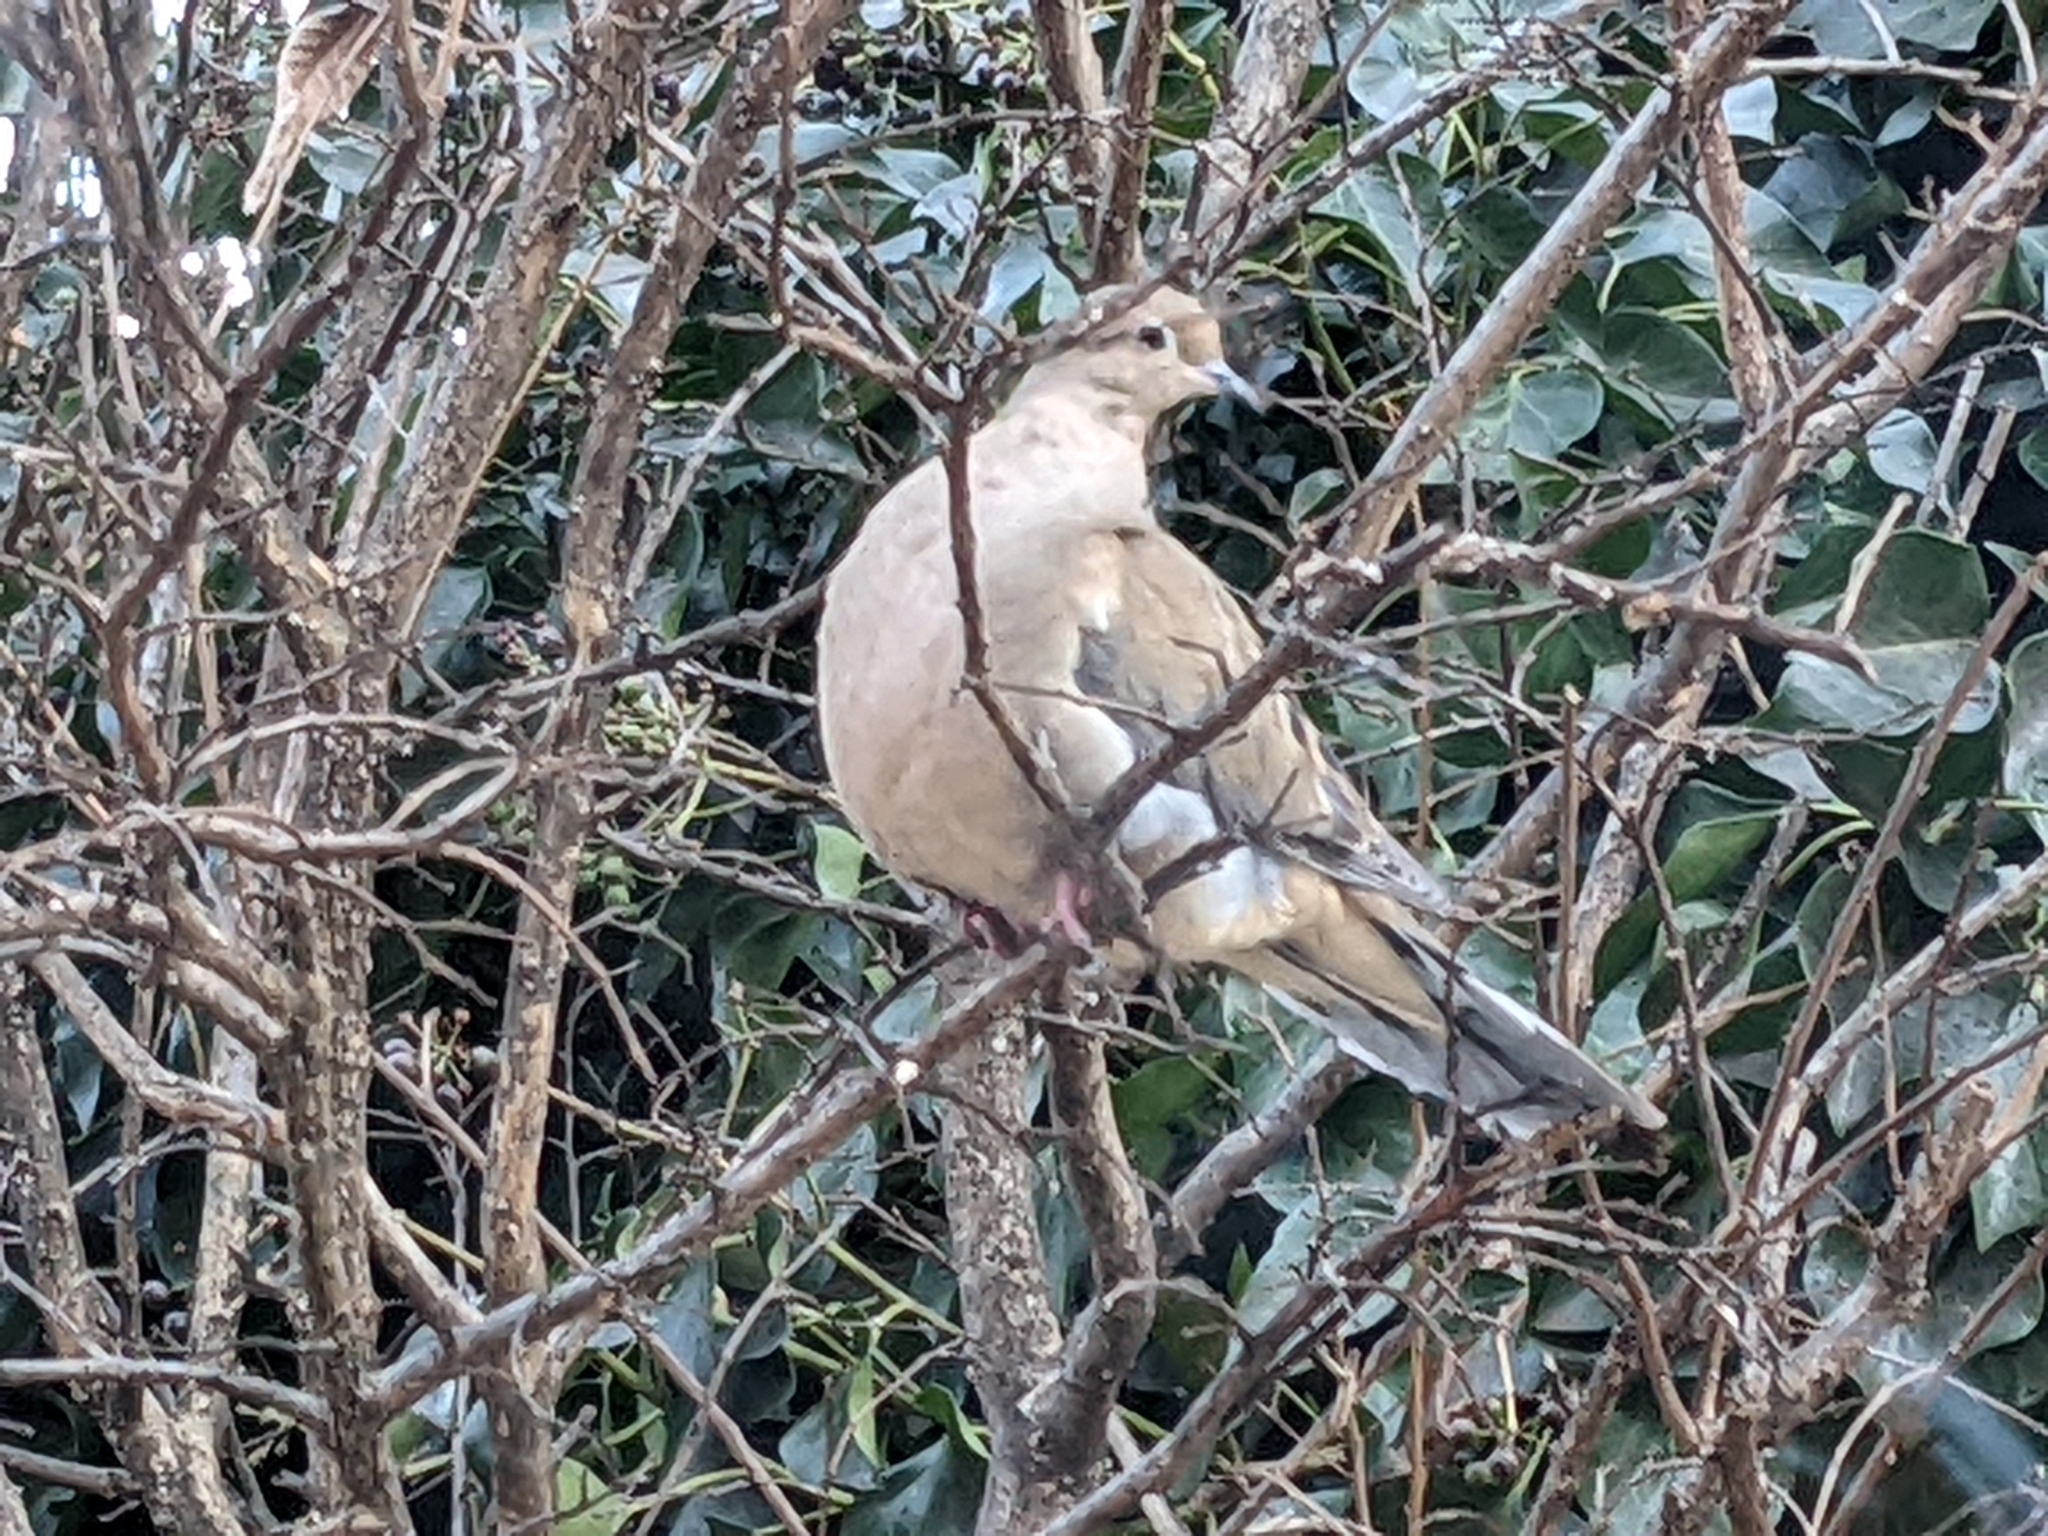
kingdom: Animalia
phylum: Chordata
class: Aves
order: Columbiformes
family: Columbidae
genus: Zenaida
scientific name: Zenaida macroura
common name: Mourning dove
